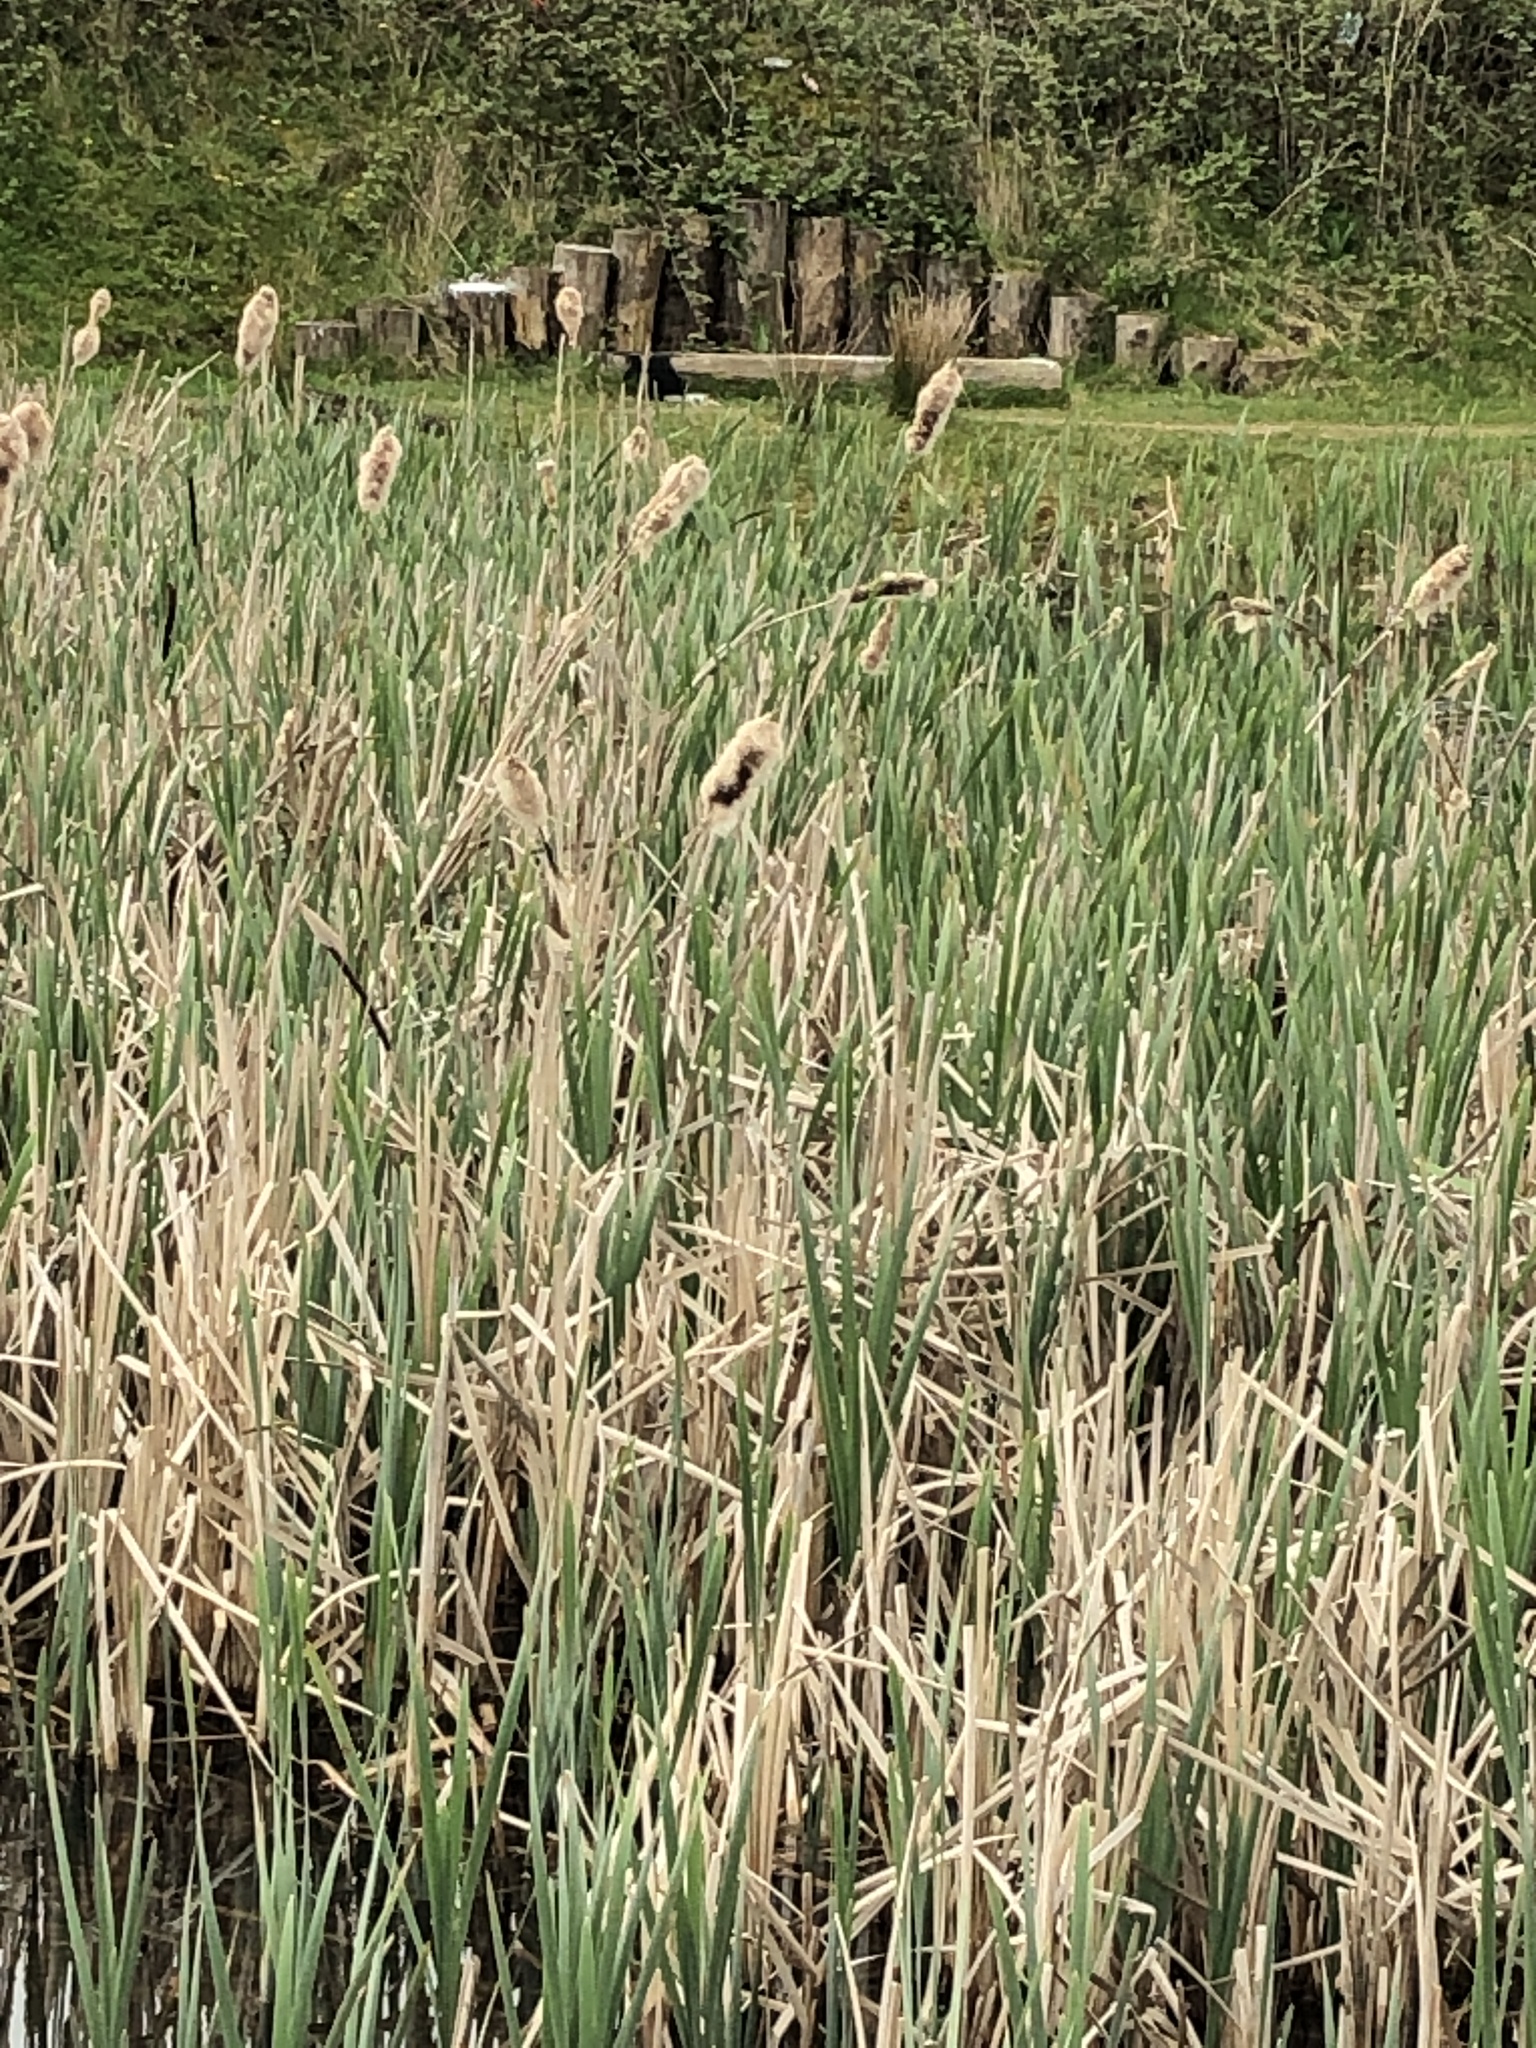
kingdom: Plantae
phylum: Tracheophyta
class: Liliopsida
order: Poales
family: Typhaceae
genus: Typha
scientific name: Typha latifolia
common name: Broadleaf cattail
